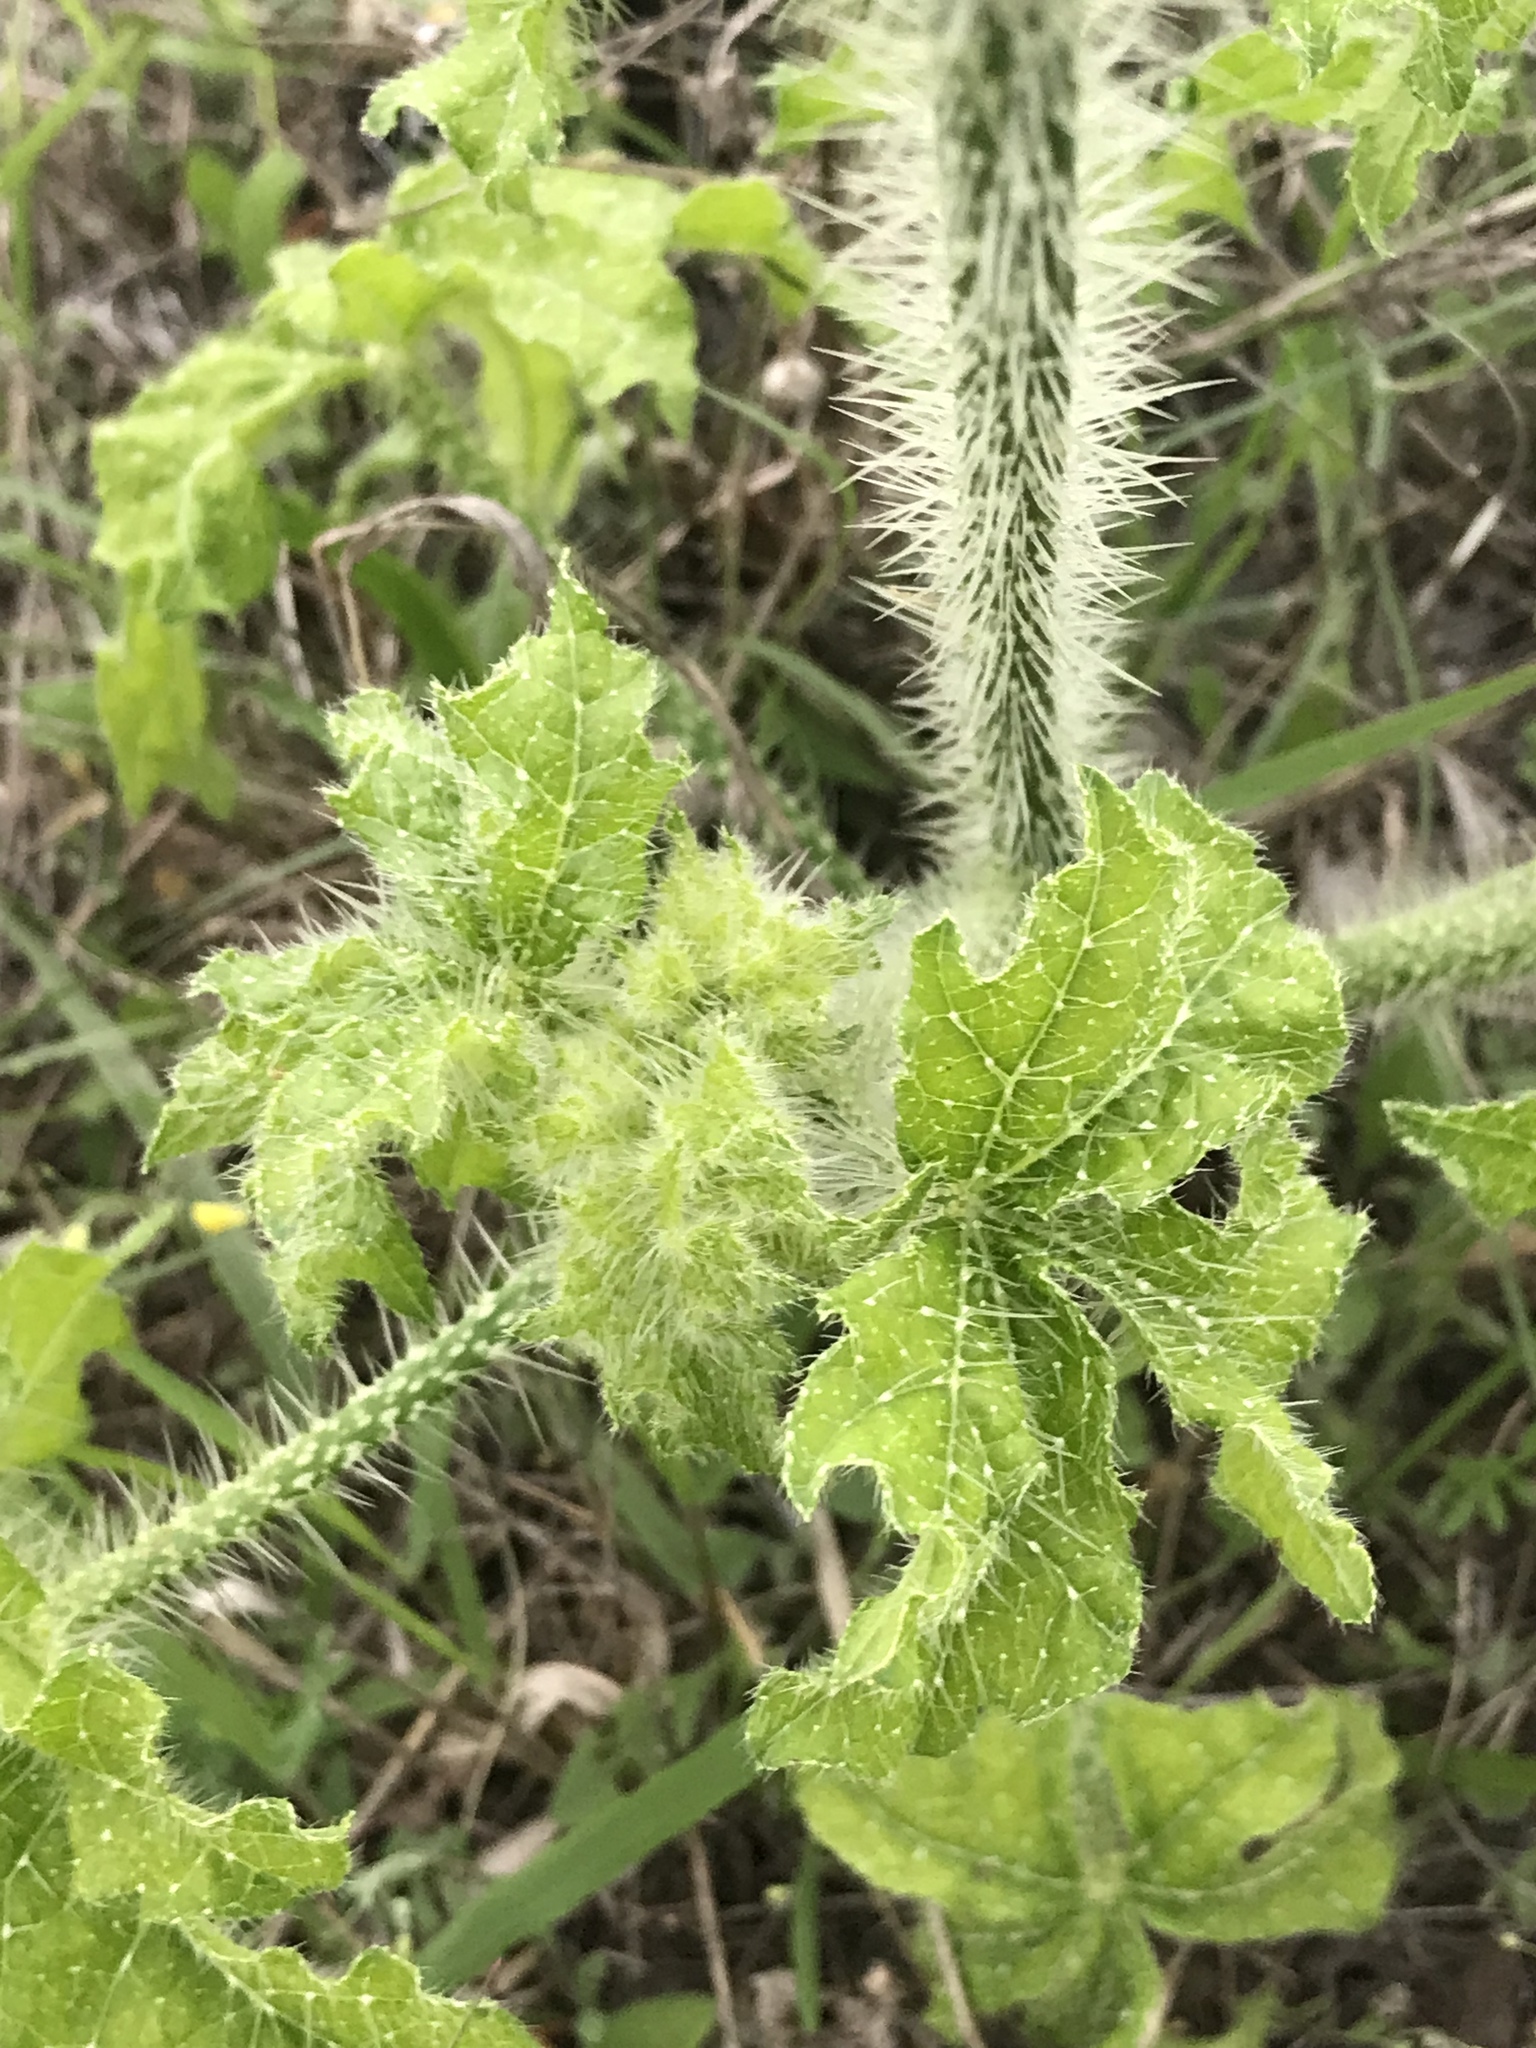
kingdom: Plantae
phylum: Tracheophyta
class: Magnoliopsida
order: Malpighiales
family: Euphorbiaceae
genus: Cnidoscolus
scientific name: Cnidoscolus texanus
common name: Texas bull-nettle
